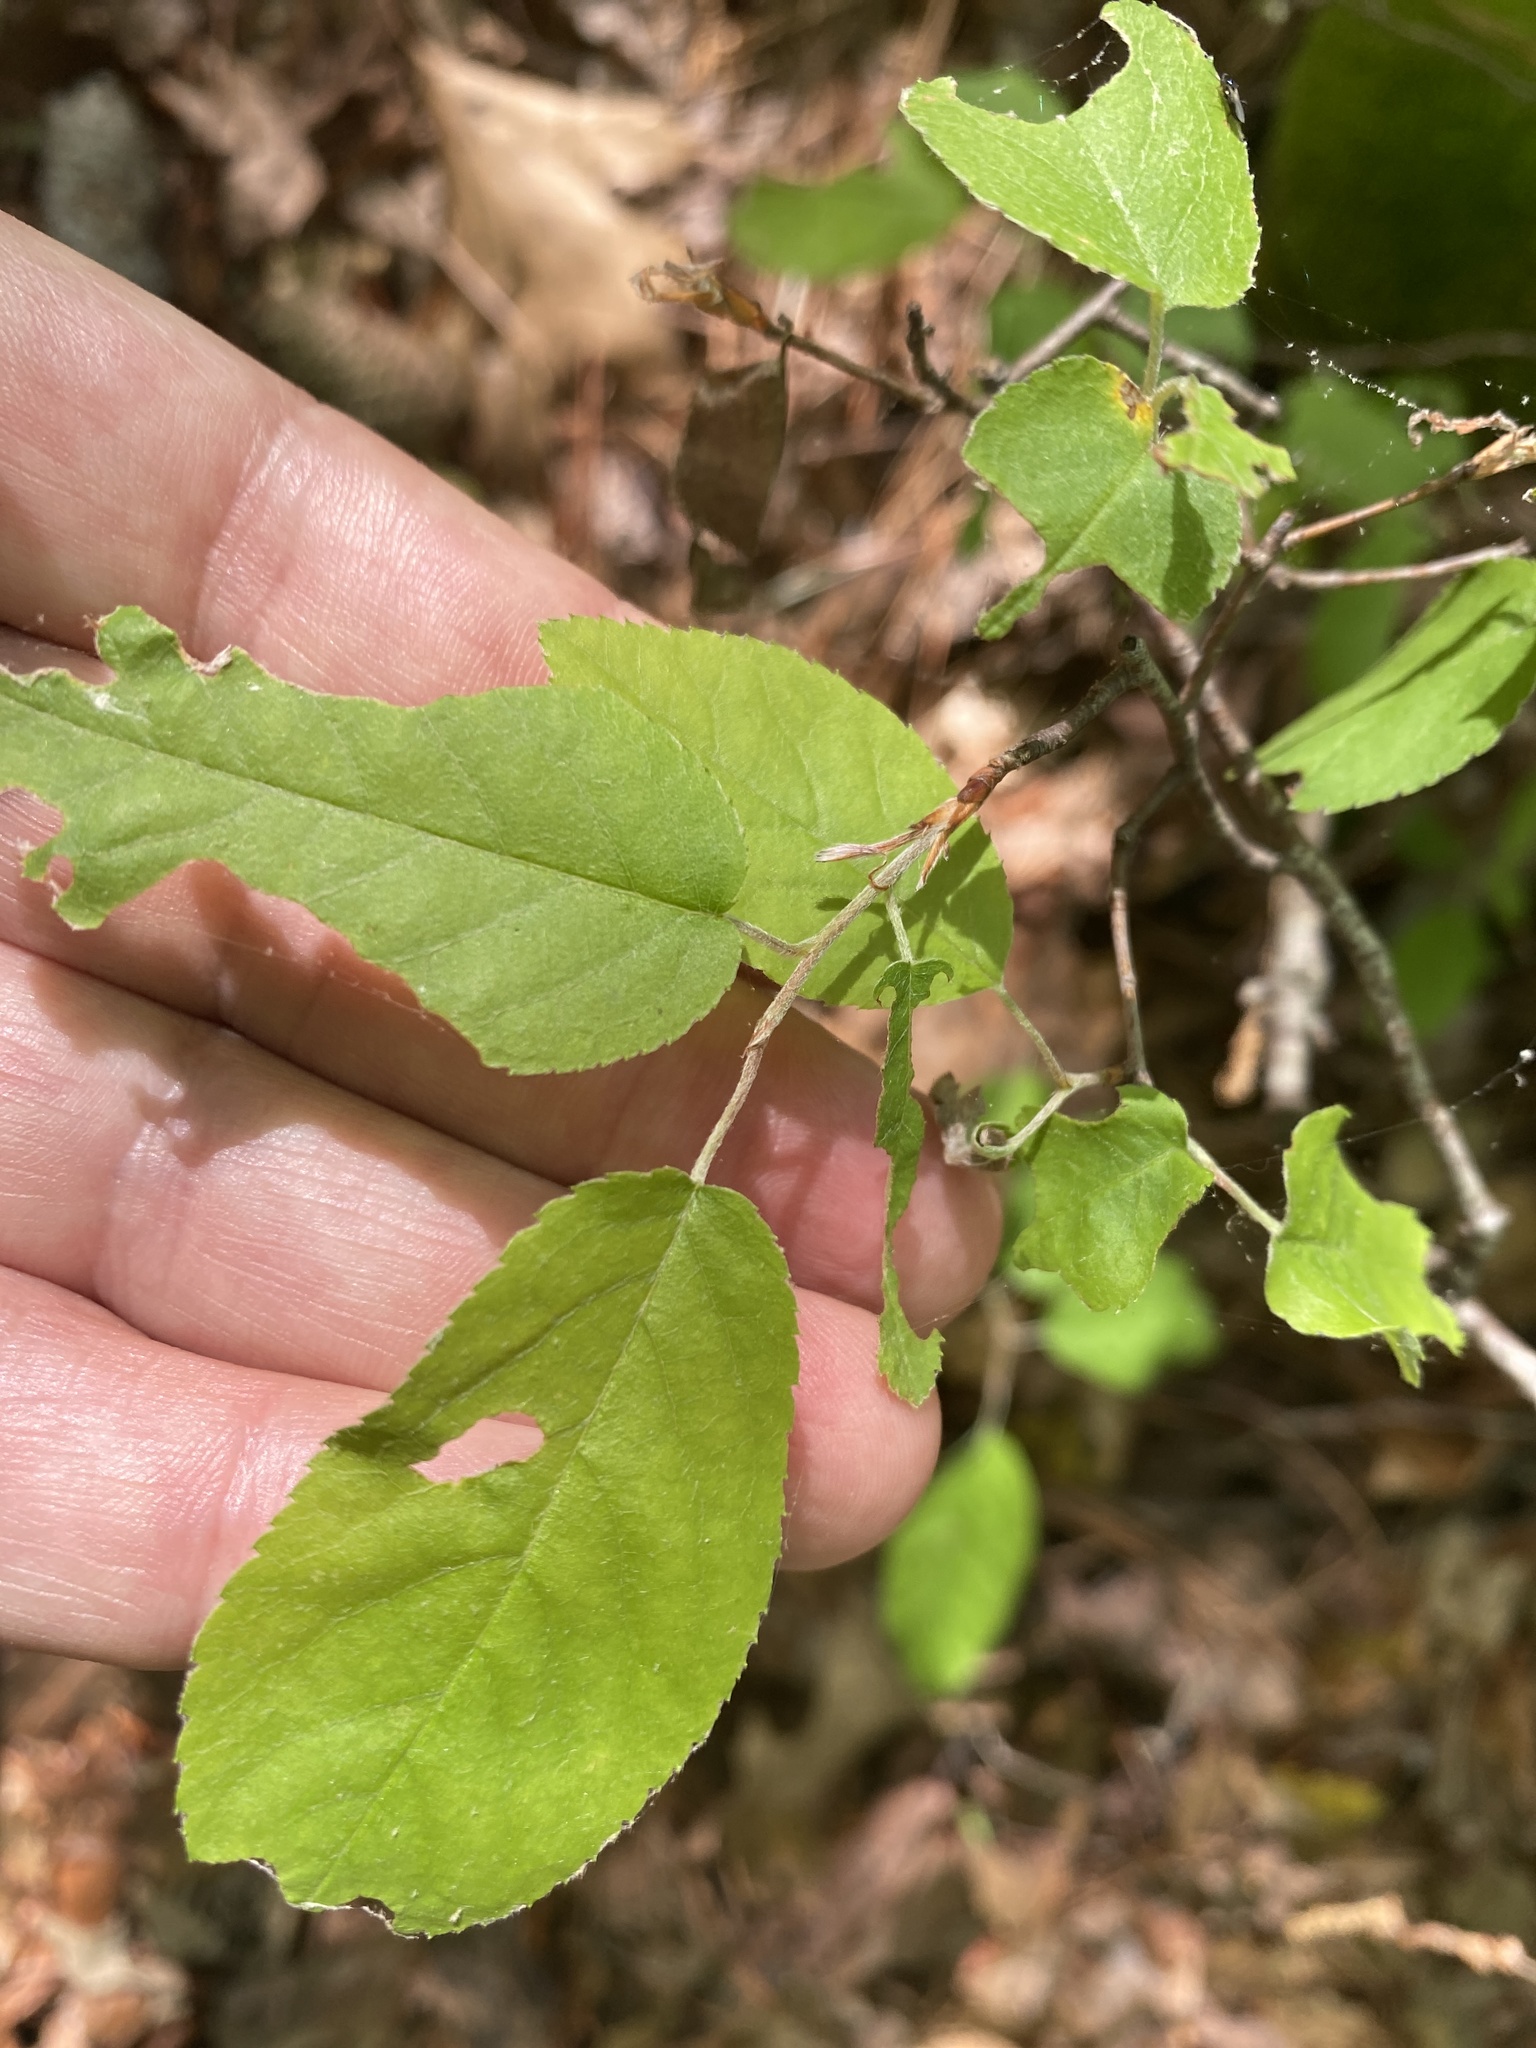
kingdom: Plantae
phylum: Tracheophyta
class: Magnoliopsida
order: Rosales
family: Rosaceae
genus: Amelanchier
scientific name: Amelanchier arborea
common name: Downy serviceberry
